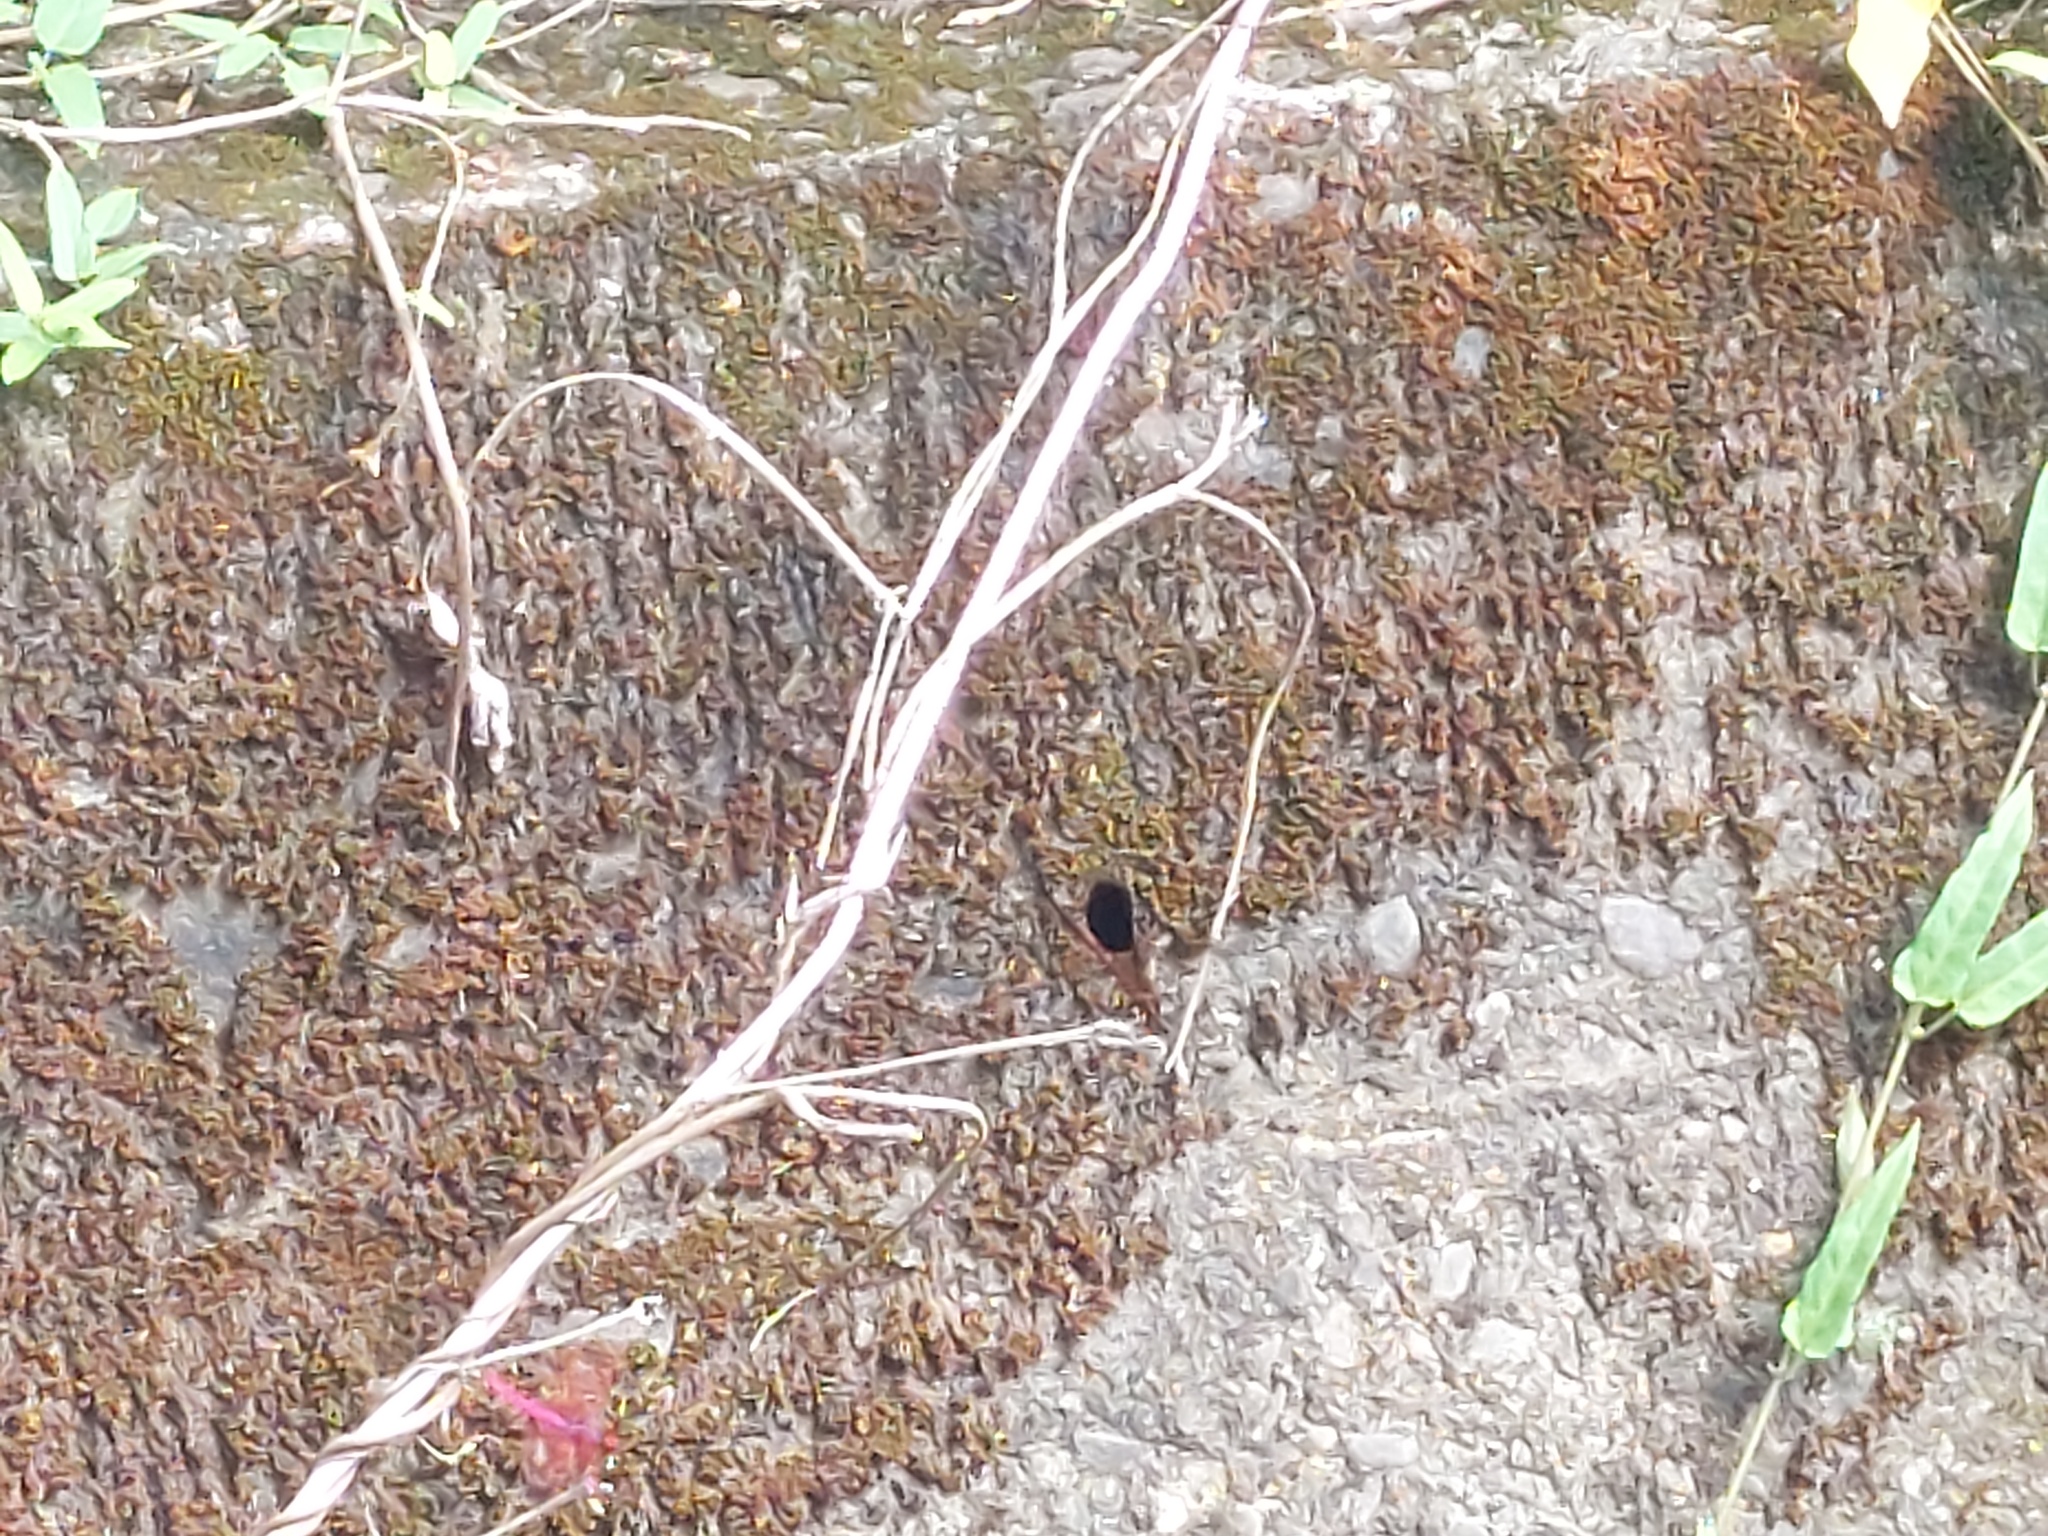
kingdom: Animalia
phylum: Arthropoda
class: Insecta
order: Odonata
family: Euphaeidae
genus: Euphaea
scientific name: Euphaea formosa
